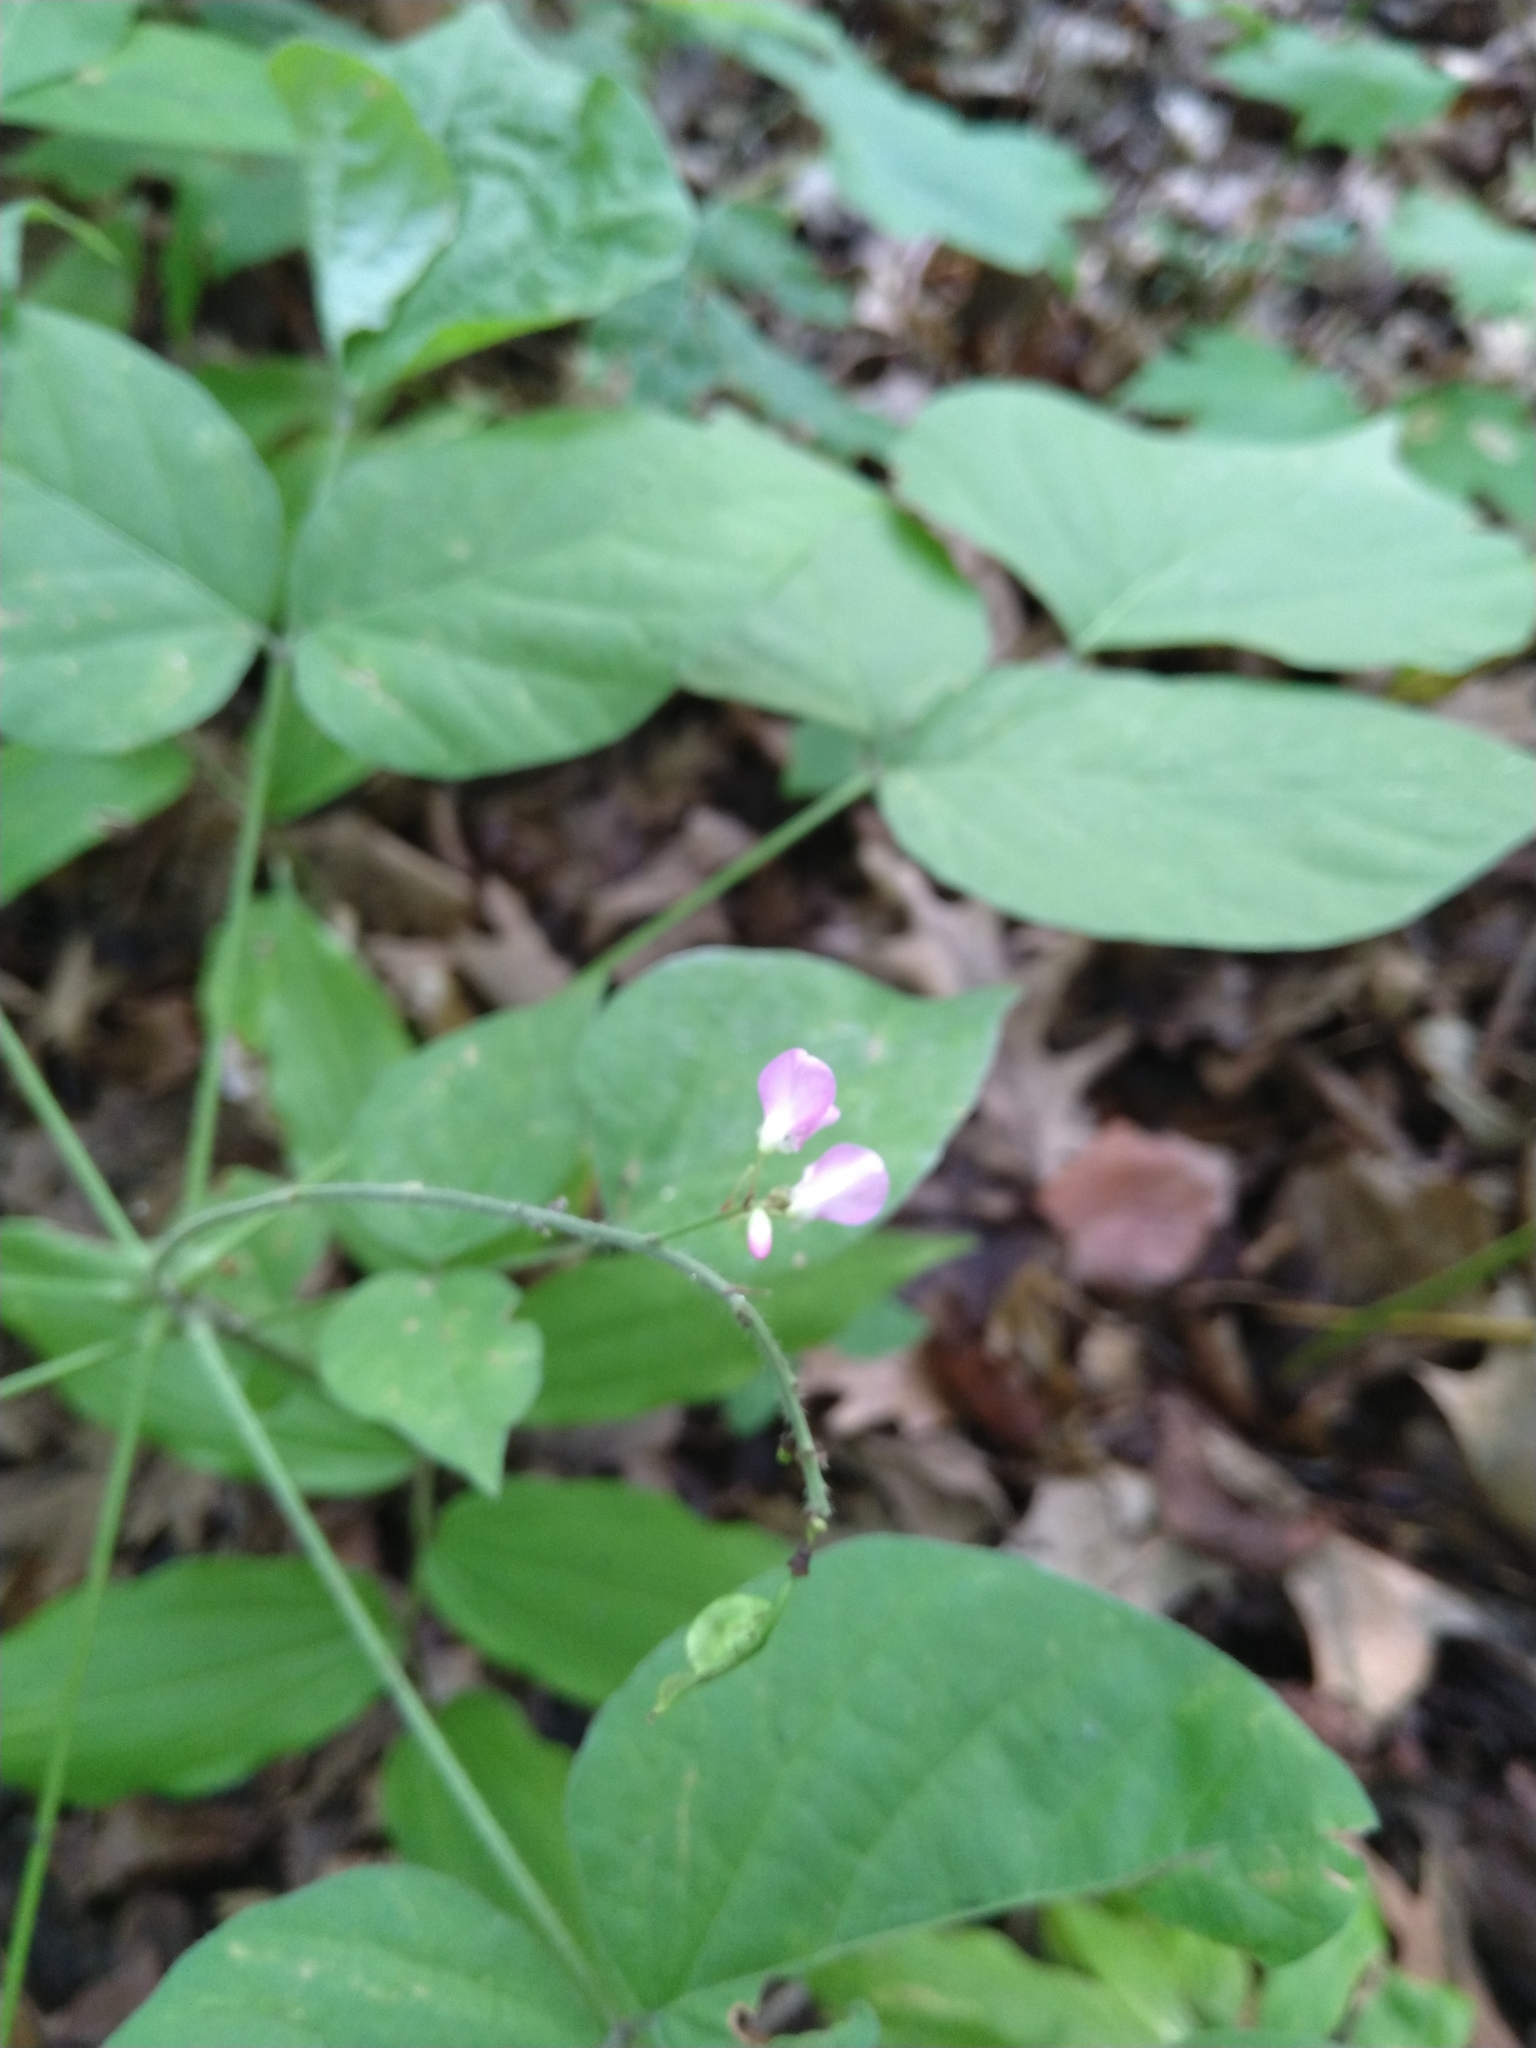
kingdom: Plantae
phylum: Tracheophyta
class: Magnoliopsida
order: Fabales
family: Fabaceae
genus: Hylodesmum
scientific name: Hylodesmum glutinosum
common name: Clustered-leaved tick-trefoil
